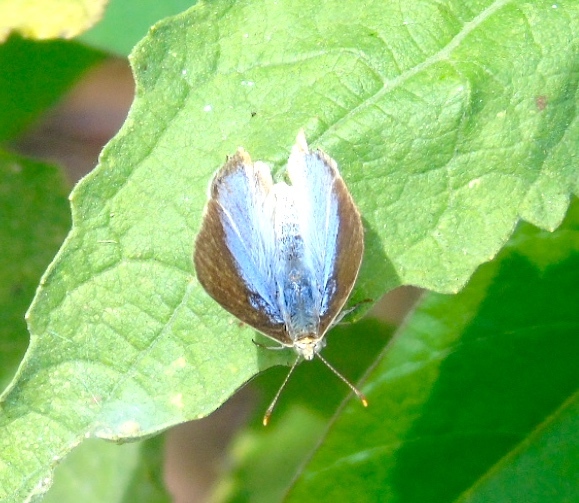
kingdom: Animalia
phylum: Arthropoda
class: Insecta
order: Lepidoptera
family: Lycaenidae
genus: Dolymorpha
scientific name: Dolymorpha jada
